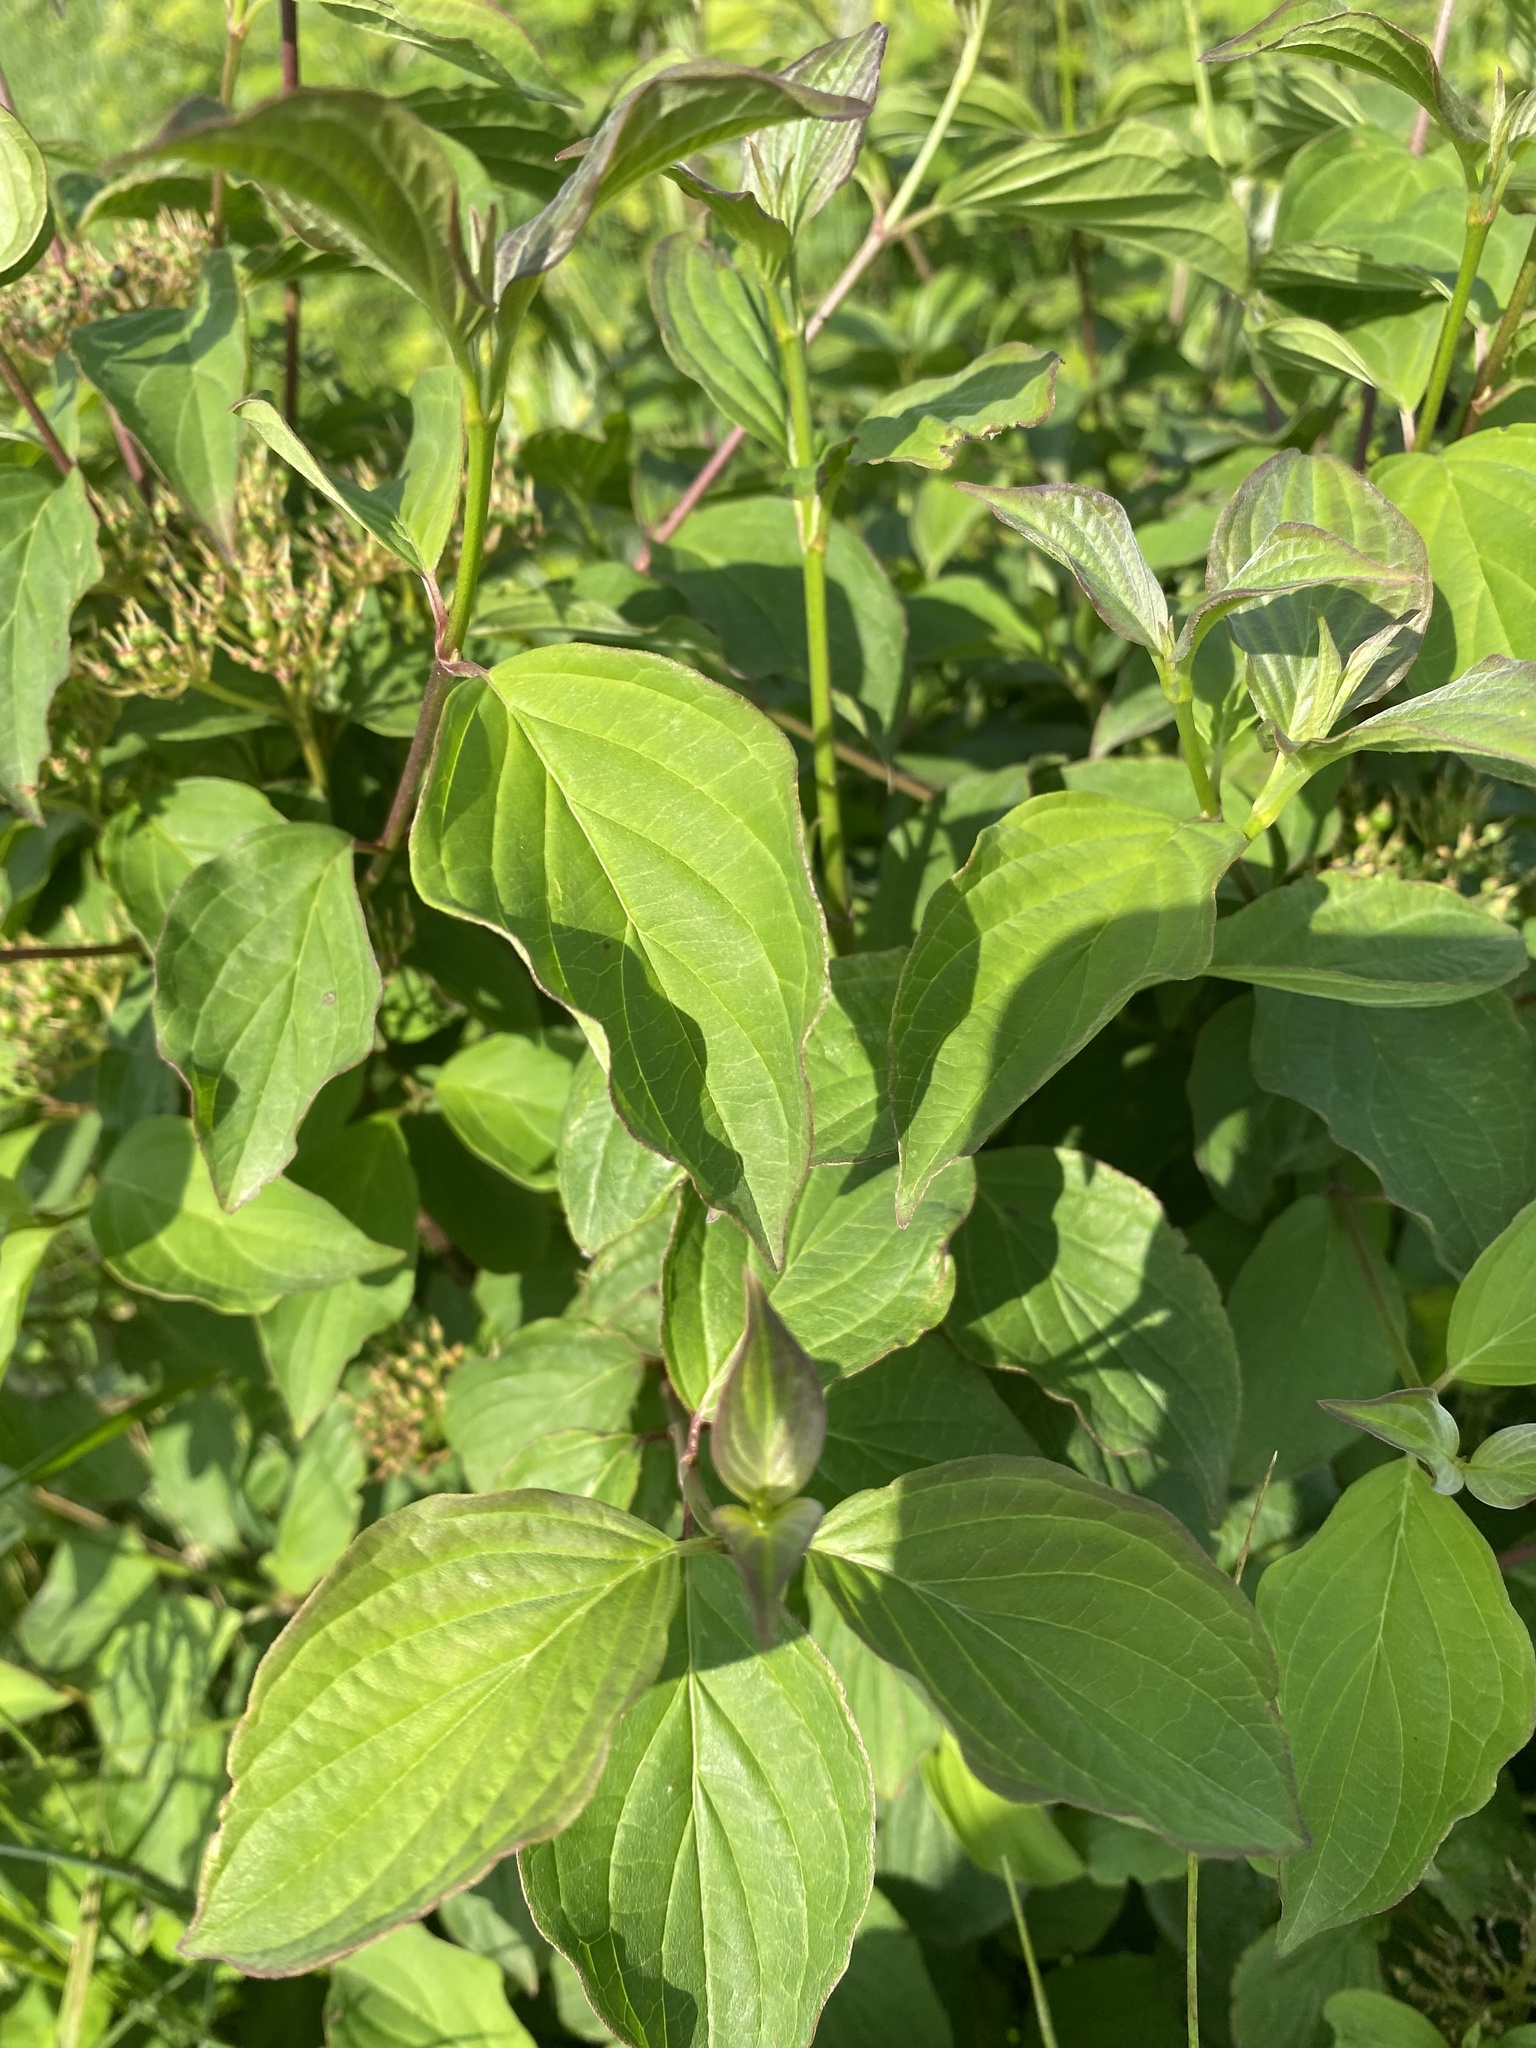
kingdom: Plantae
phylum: Tracheophyta
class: Magnoliopsida
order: Cornales
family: Cornaceae
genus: Cornus
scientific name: Cornus sanguinea
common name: Dogwood
